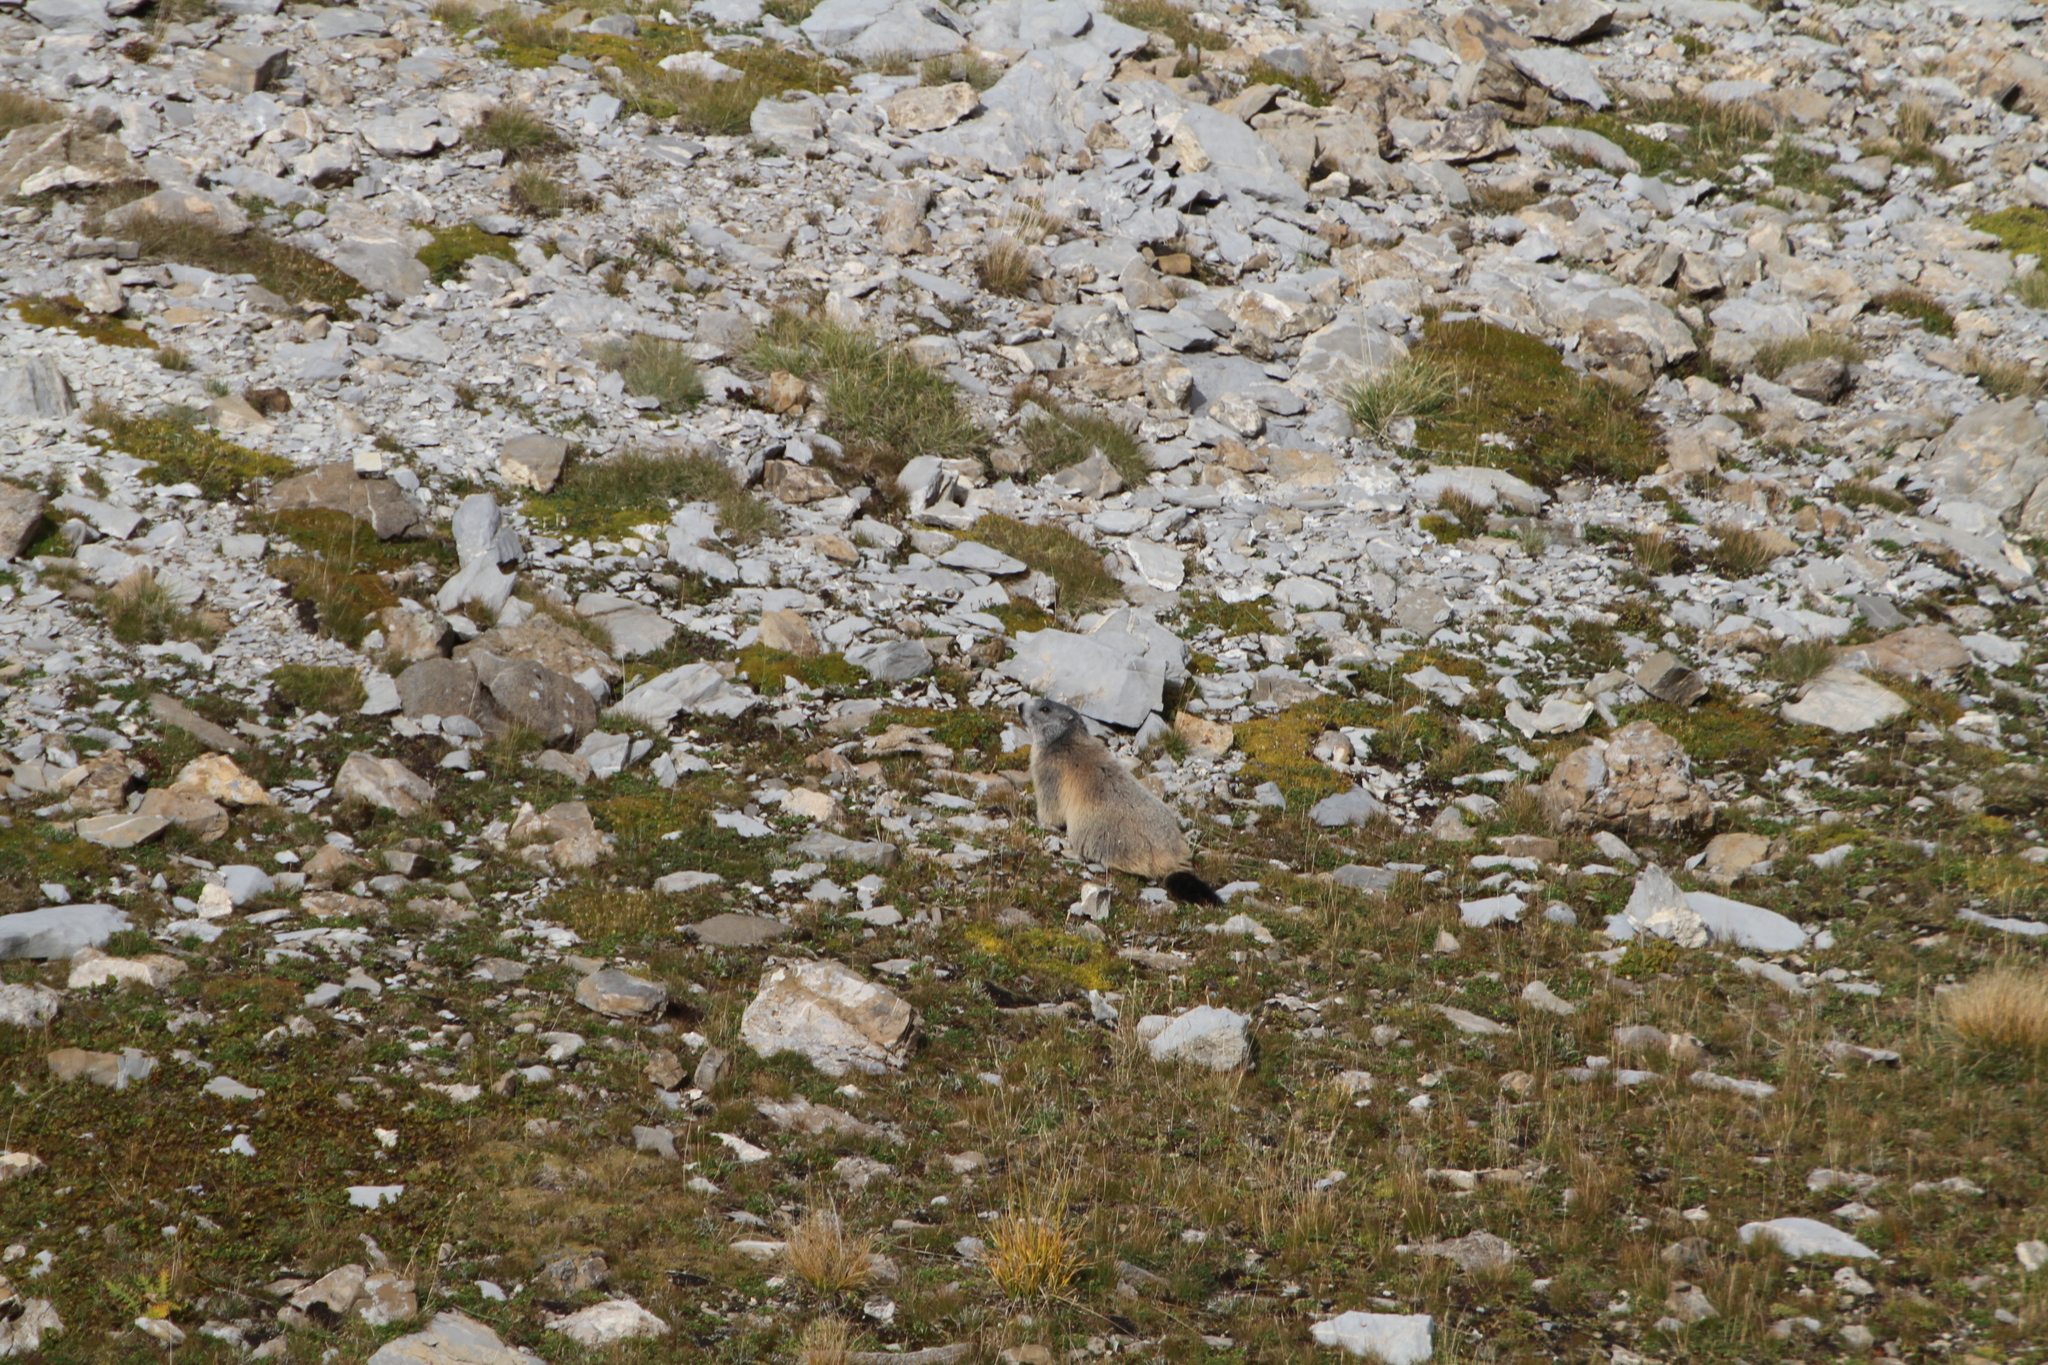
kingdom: Animalia
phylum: Chordata
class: Mammalia
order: Rodentia
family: Sciuridae
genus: Marmota
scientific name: Marmota marmota
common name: Alpine marmot
